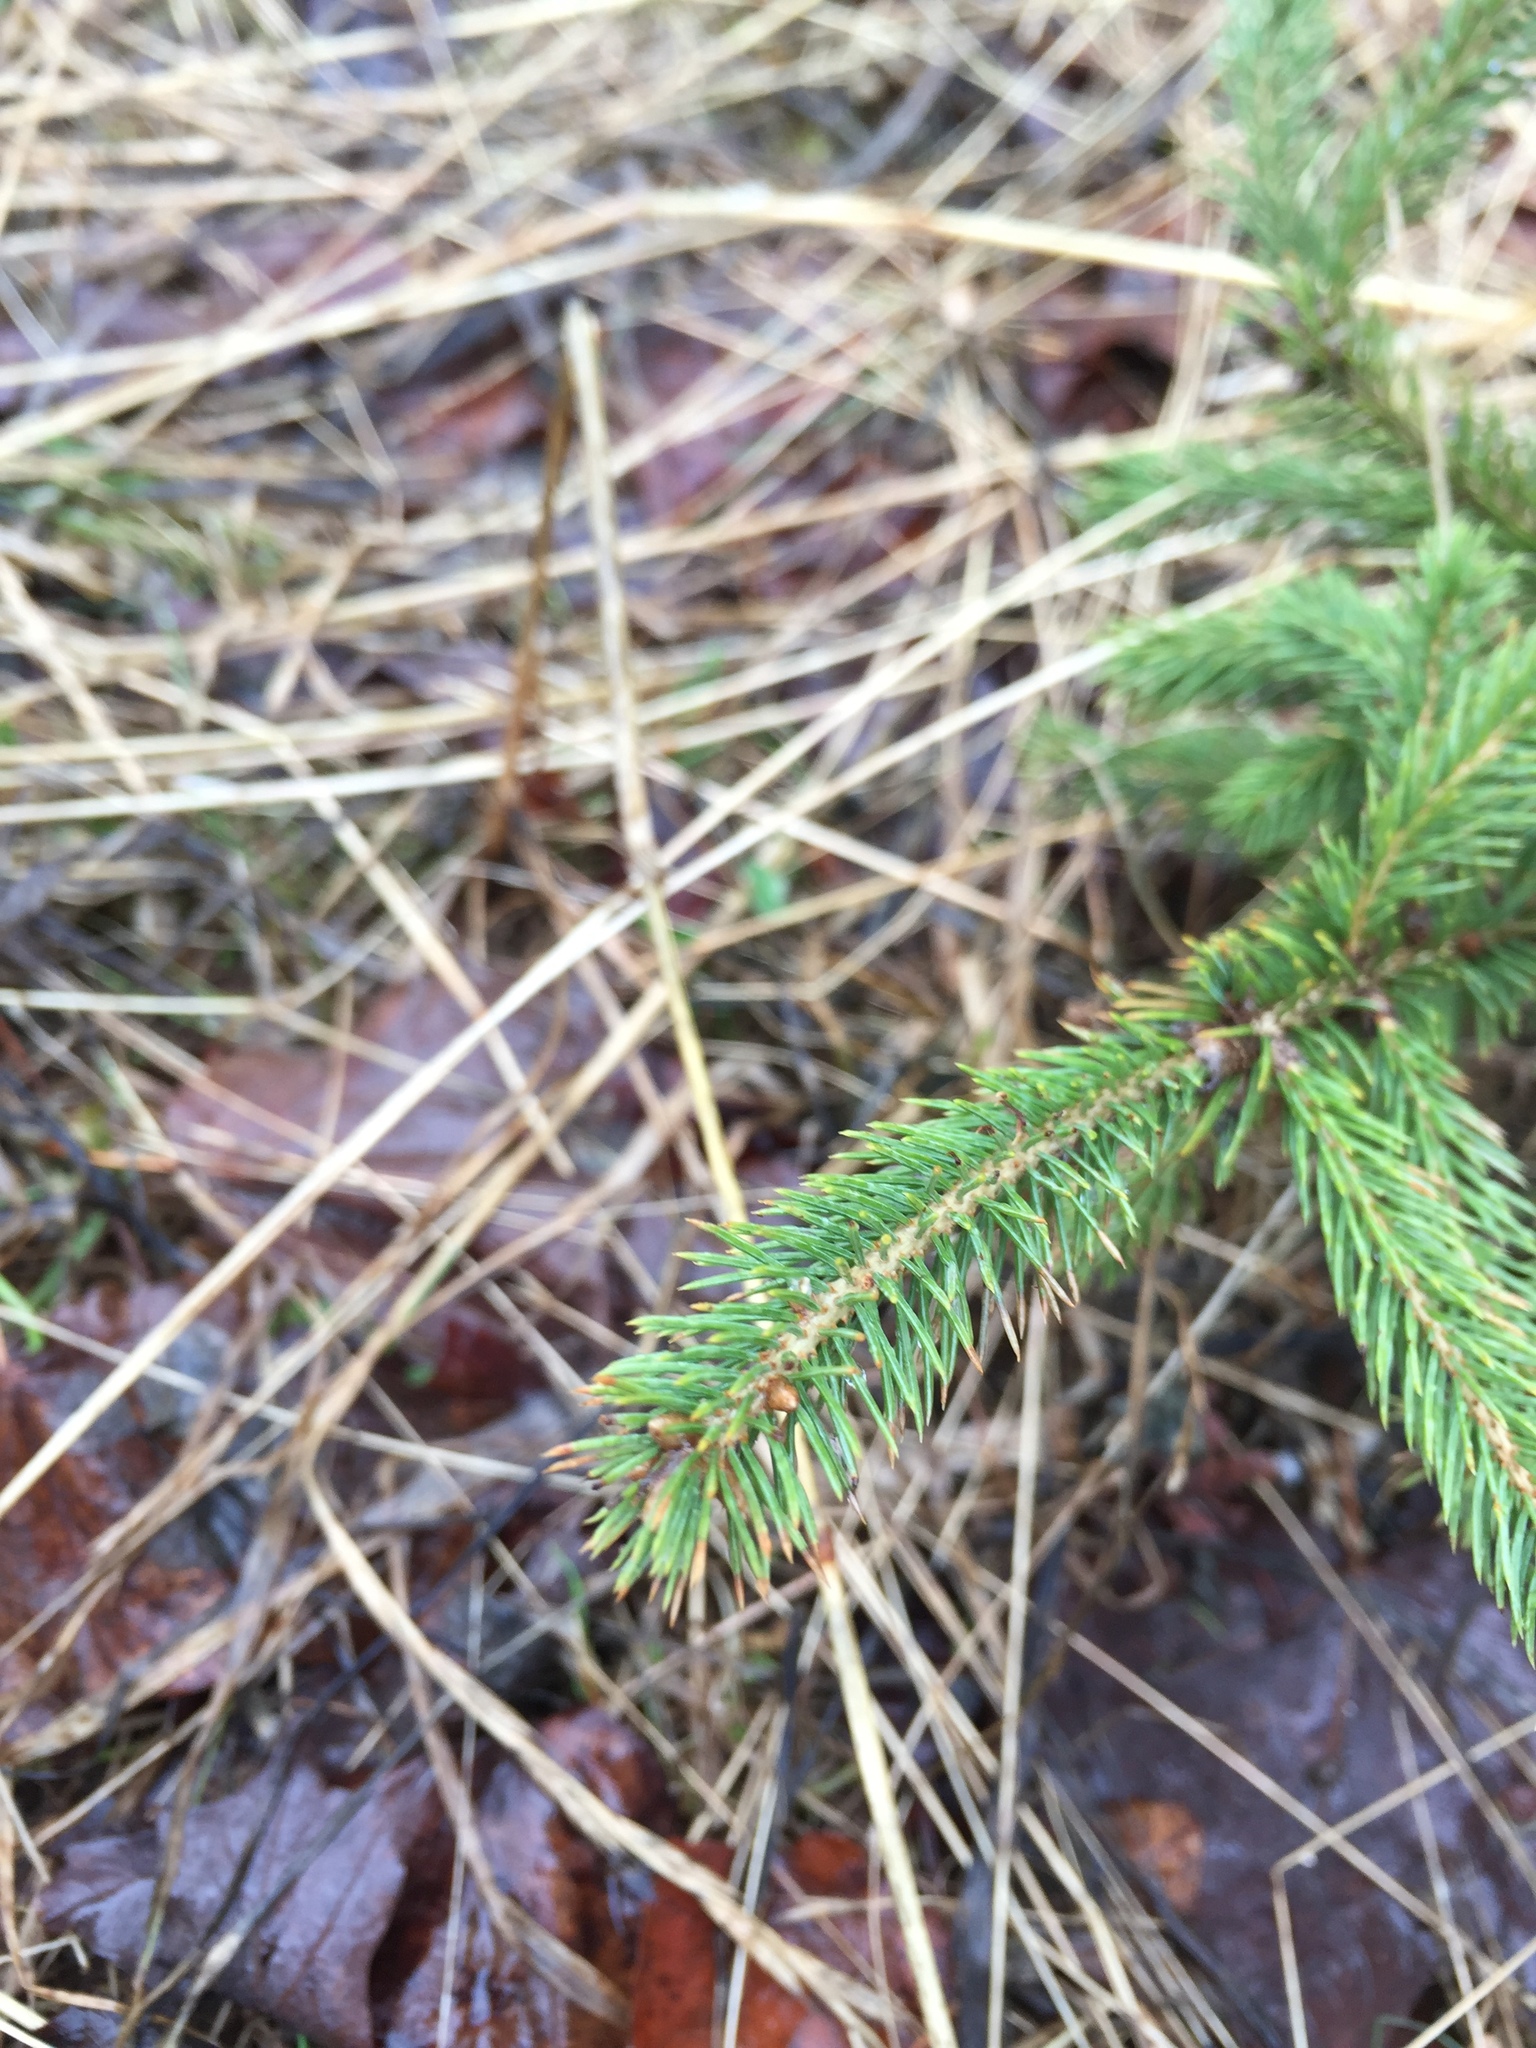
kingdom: Plantae
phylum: Tracheophyta
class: Pinopsida
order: Pinales
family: Pinaceae
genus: Picea
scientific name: Picea glauca
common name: White spruce
